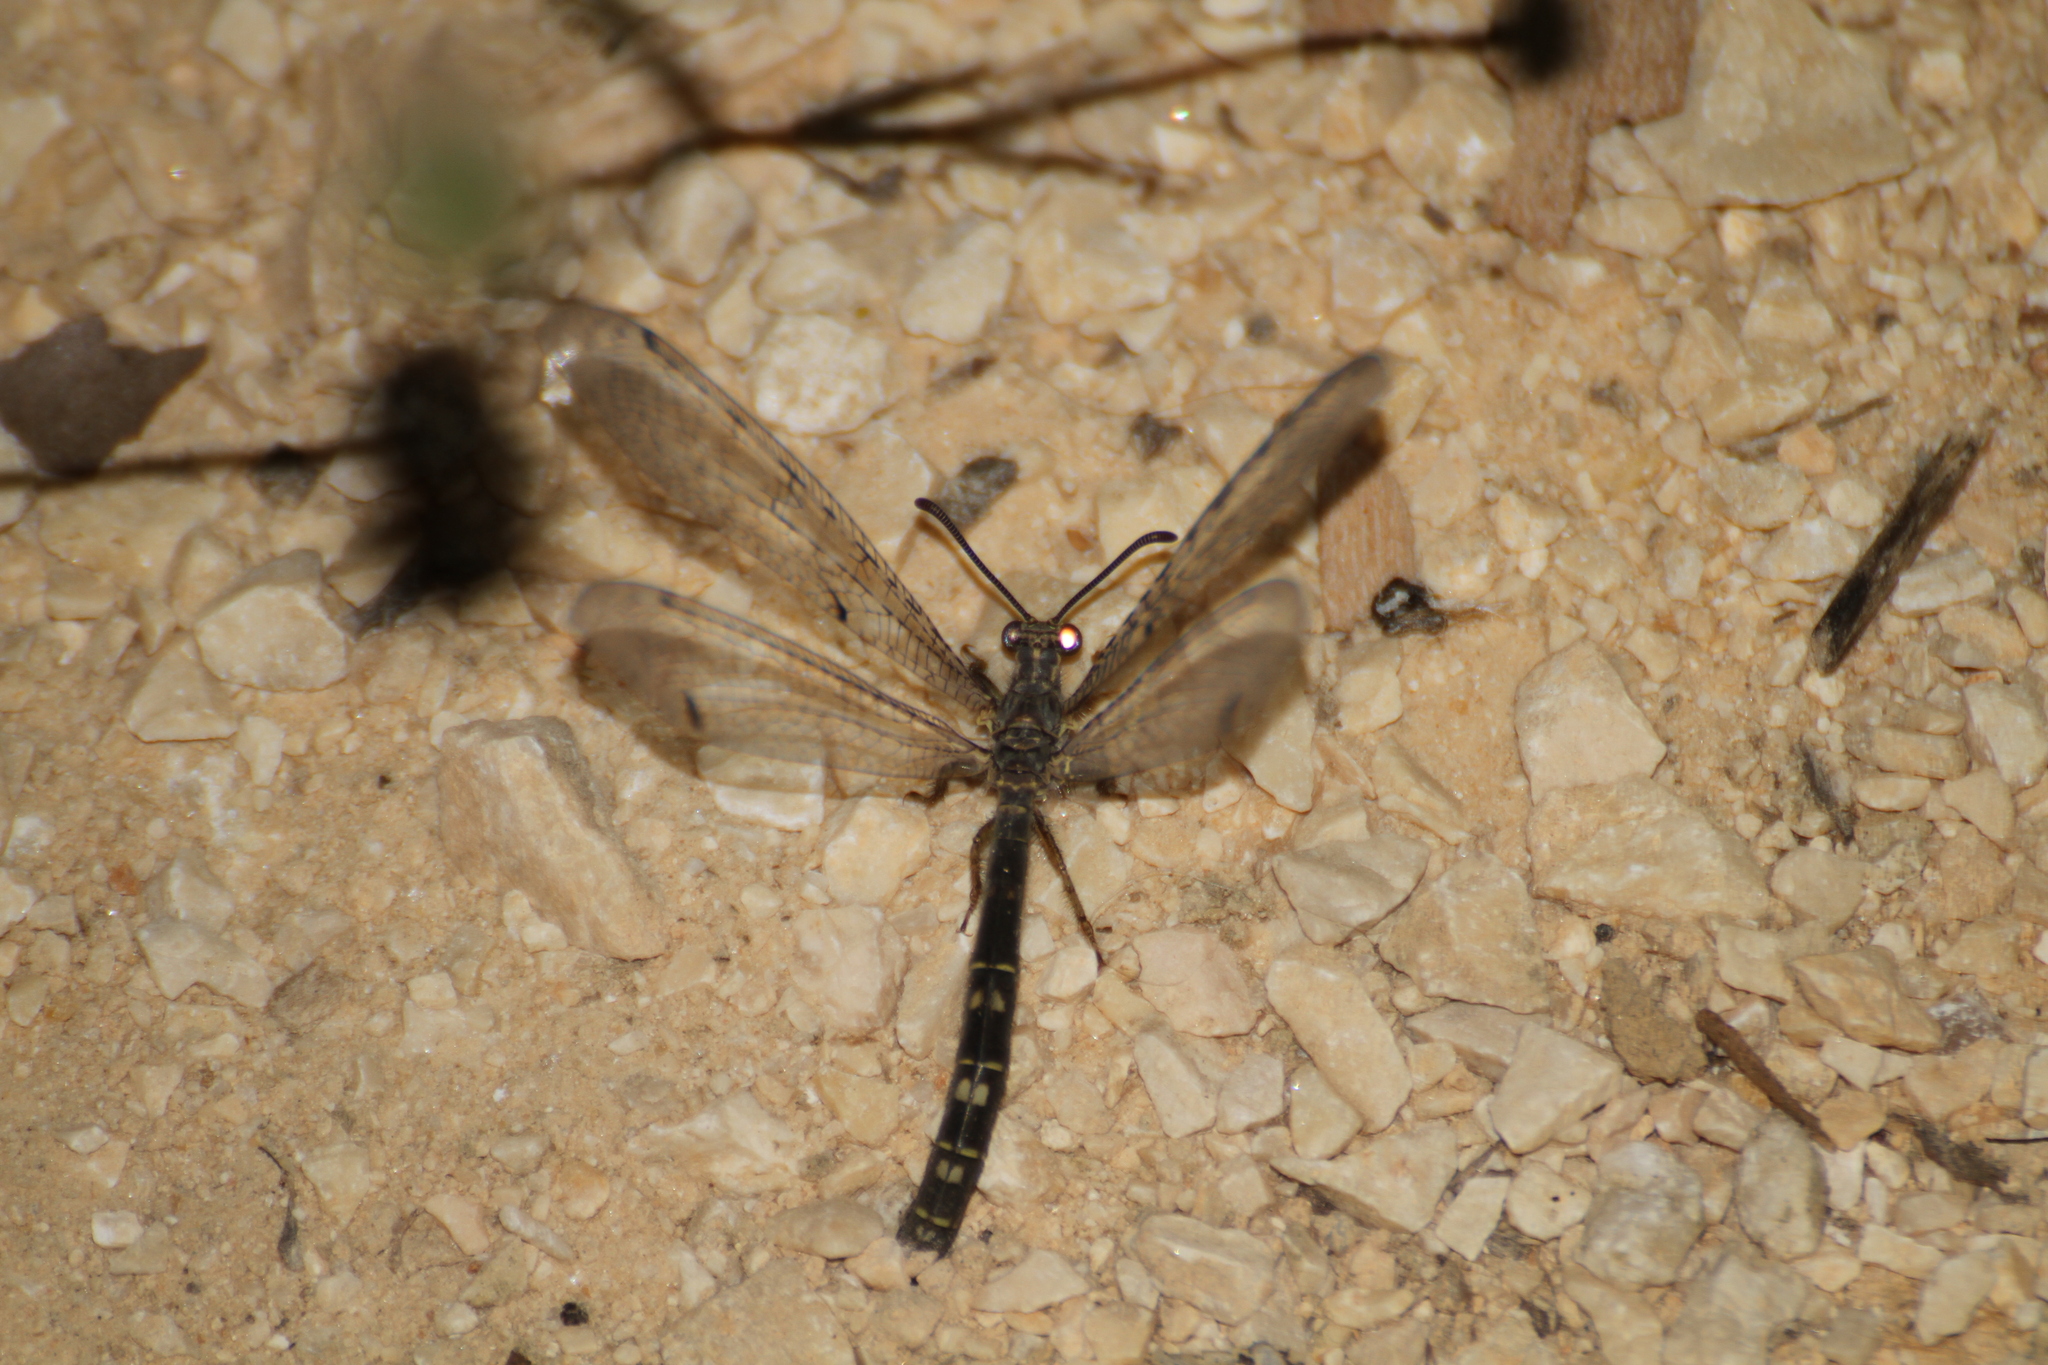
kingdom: Animalia
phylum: Arthropoda
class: Insecta
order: Neuroptera
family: Myrmeleontidae
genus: Distoleon
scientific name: Distoleon tetragrammicus
